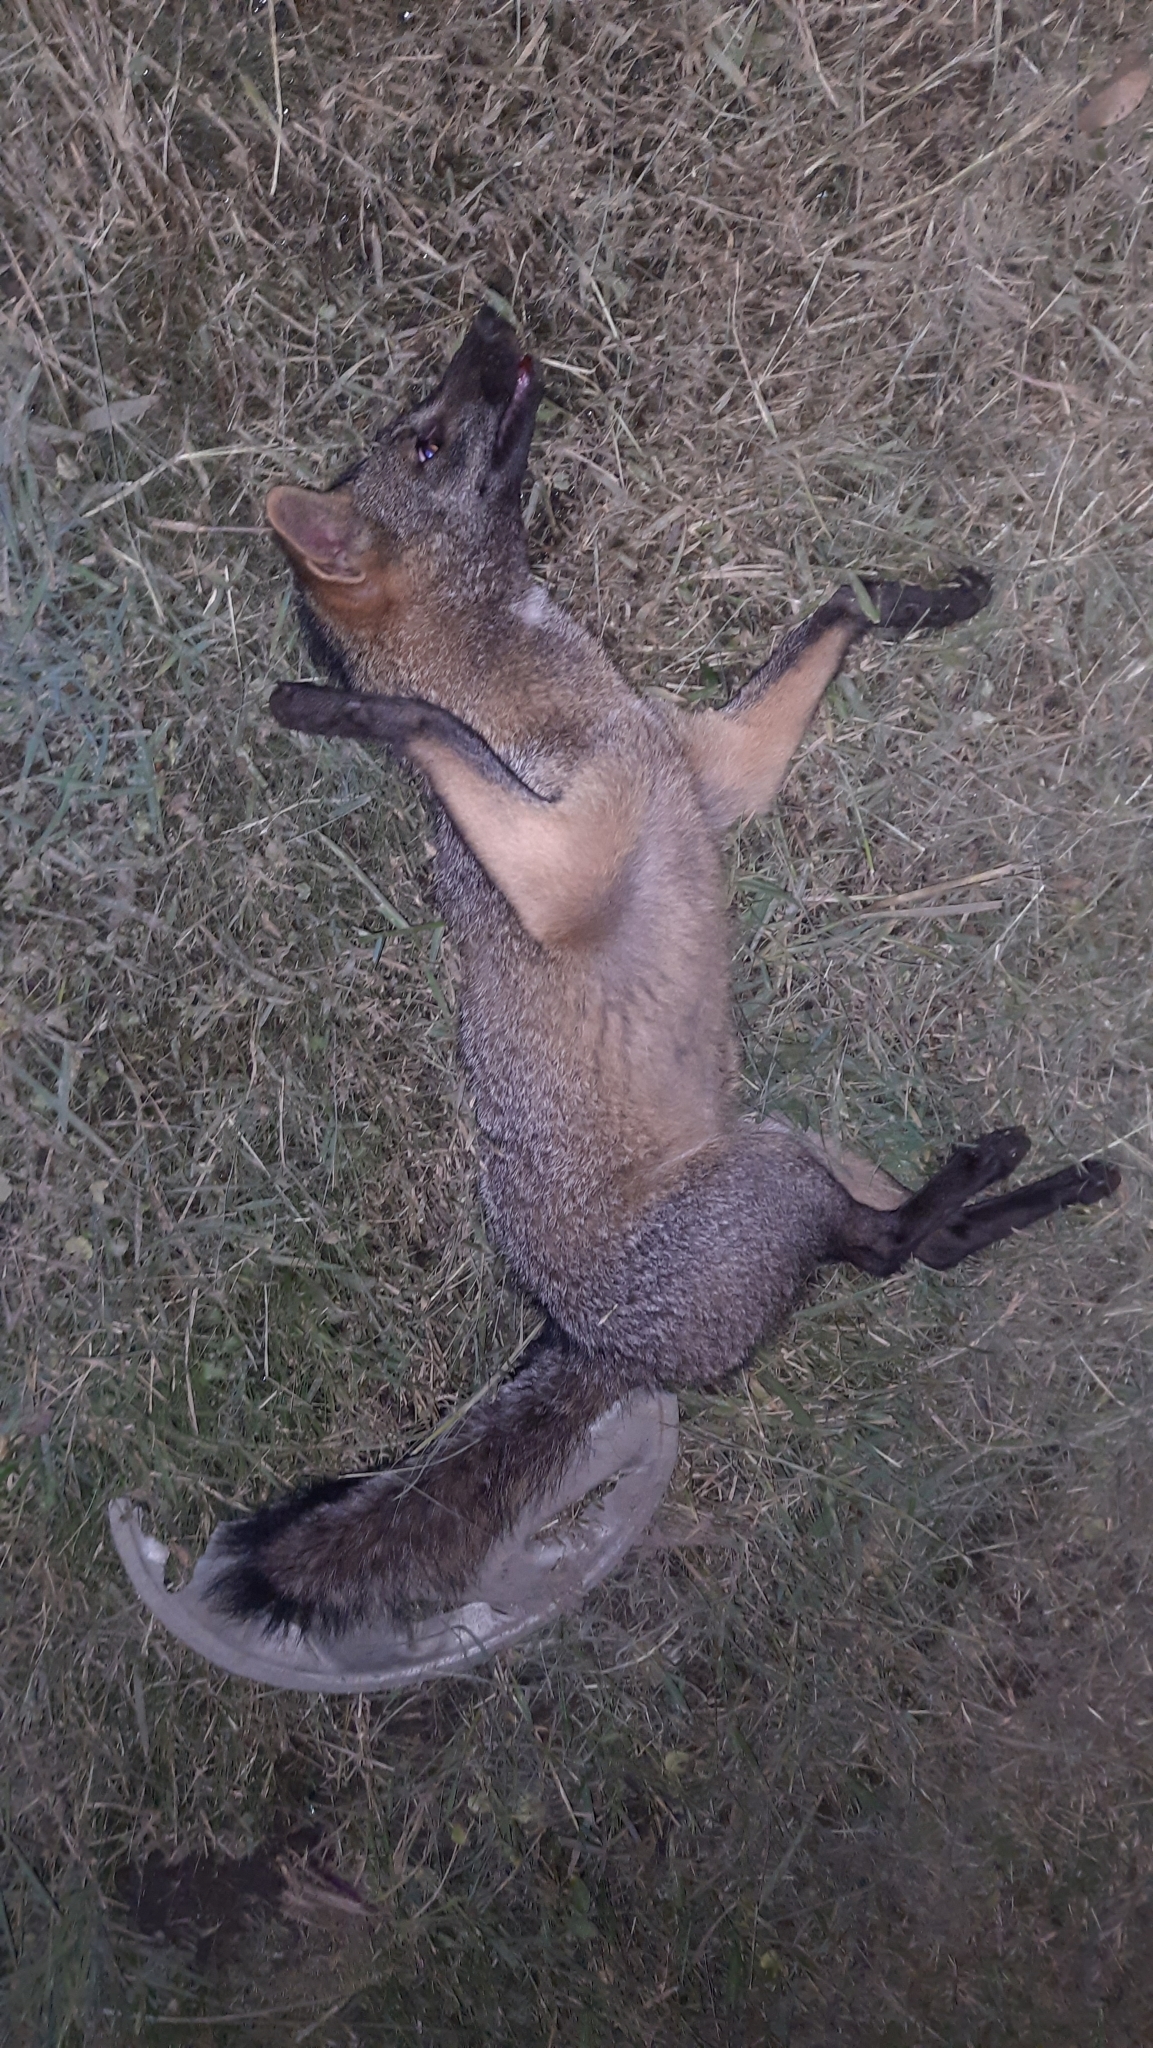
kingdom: Animalia
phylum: Chordata
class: Mammalia
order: Carnivora
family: Canidae
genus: Cerdocyon
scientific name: Cerdocyon thous
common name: Crab-eating fox
